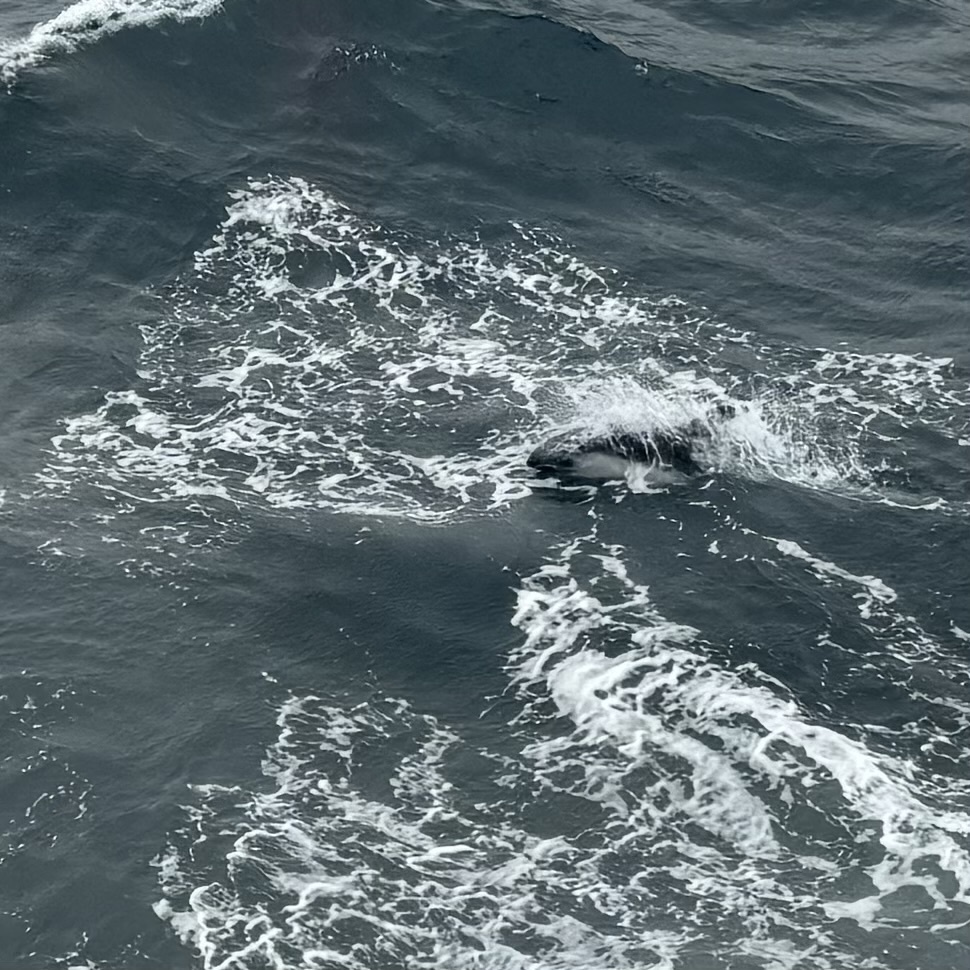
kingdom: Animalia
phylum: Chordata
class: Mammalia
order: Cetacea
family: Delphinidae
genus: Lagenorhynchus
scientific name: Lagenorhynchus australis
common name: Peale's dolphin
